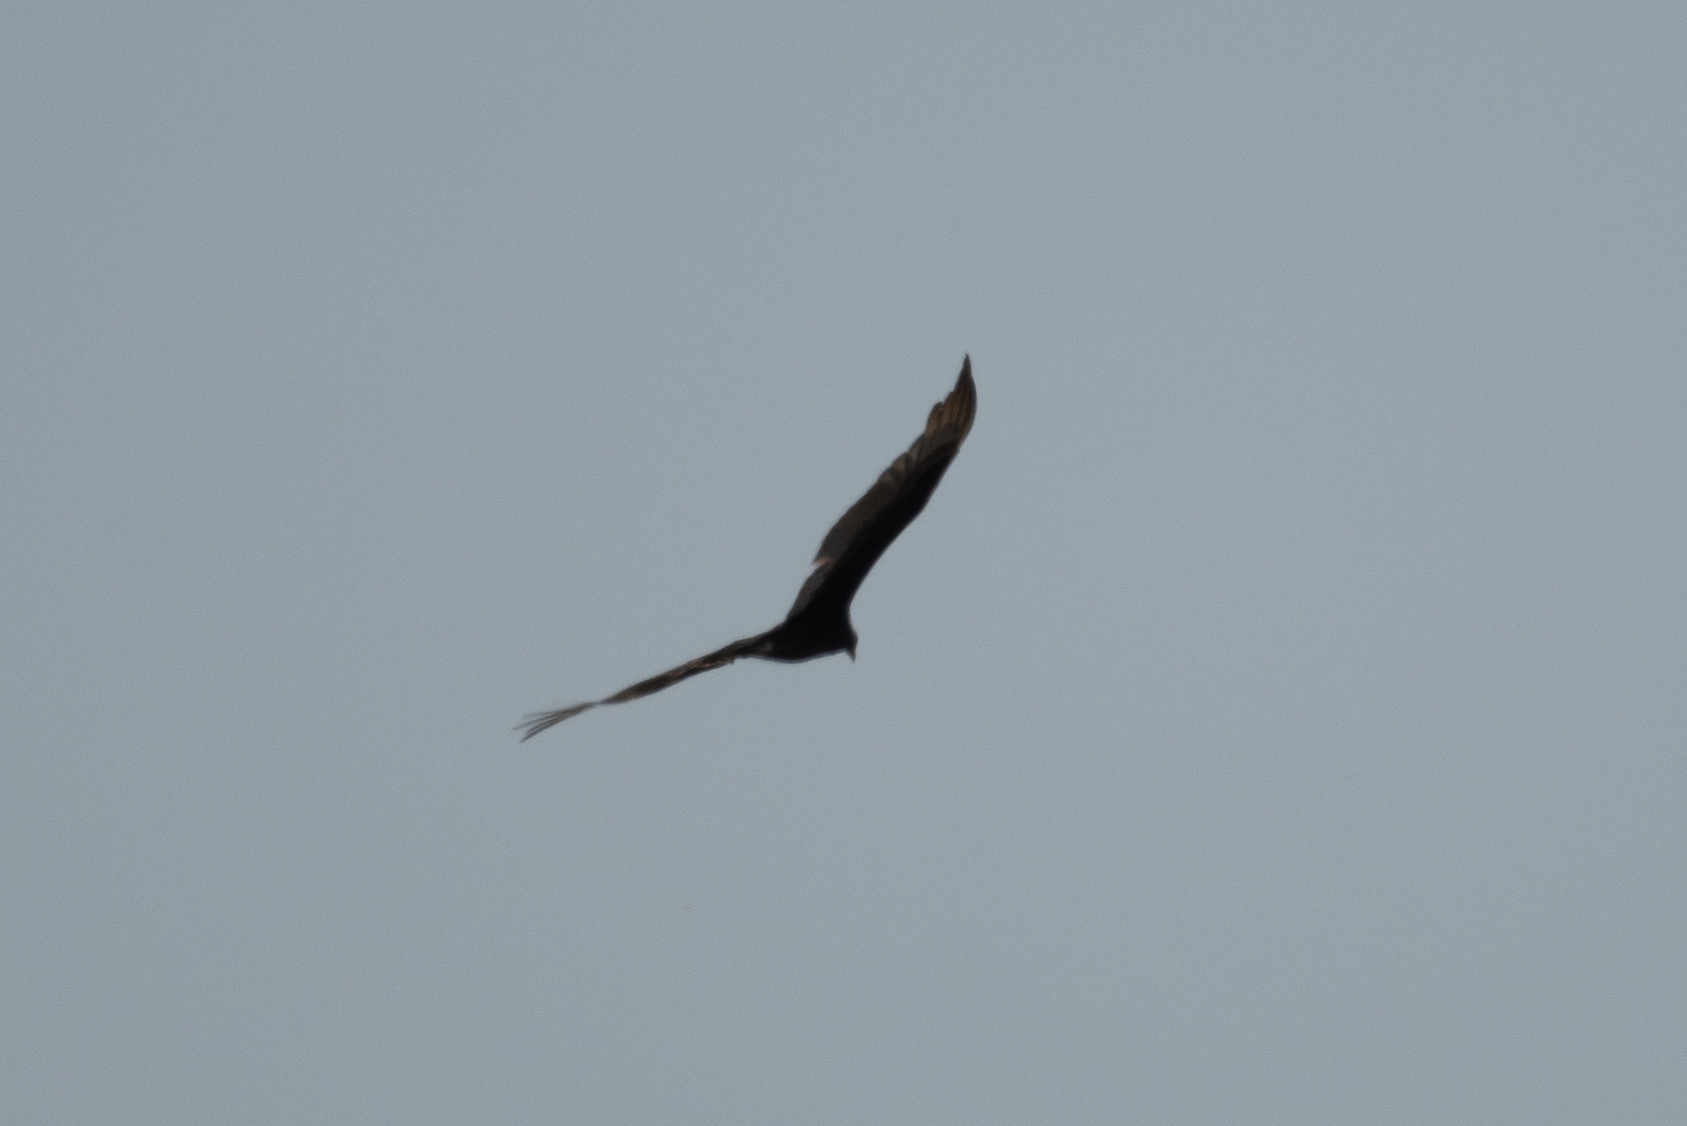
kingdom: Animalia
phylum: Chordata
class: Aves
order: Accipitriformes
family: Cathartidae
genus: Cathartes
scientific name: Cathartes aura
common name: Turkey vulture
